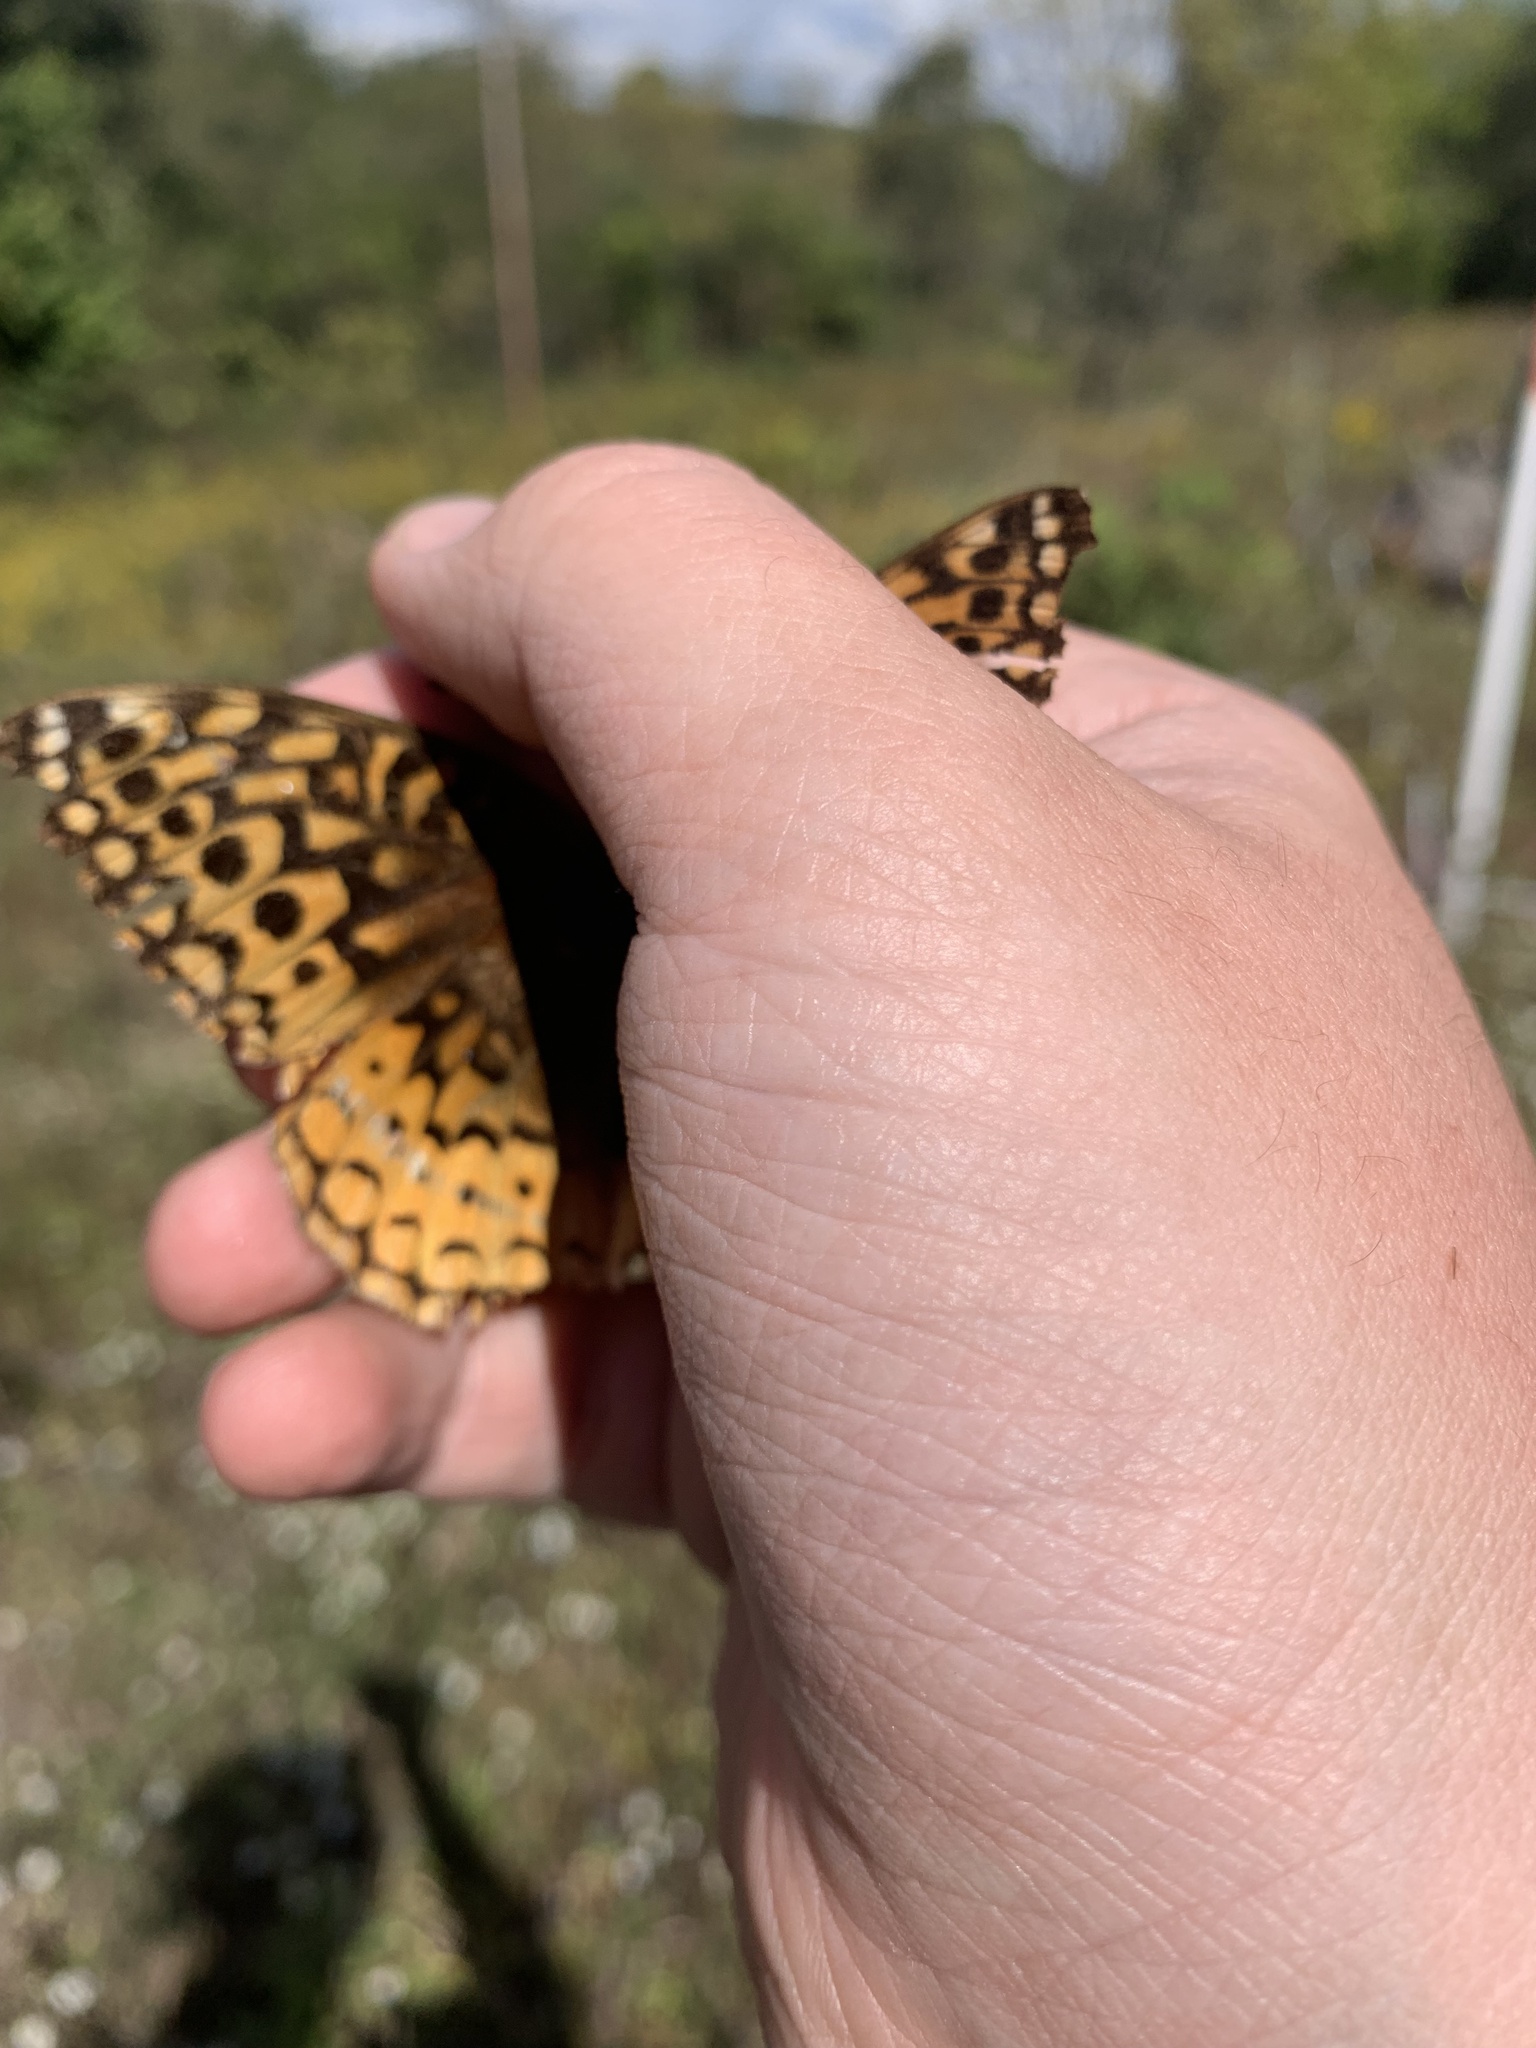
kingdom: Animalia
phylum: Arthropoda
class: Insecta
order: Lepidoptera
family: Nymphalidae
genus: Speyeria
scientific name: Speyeria cybele
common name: Great spangled fritillary
